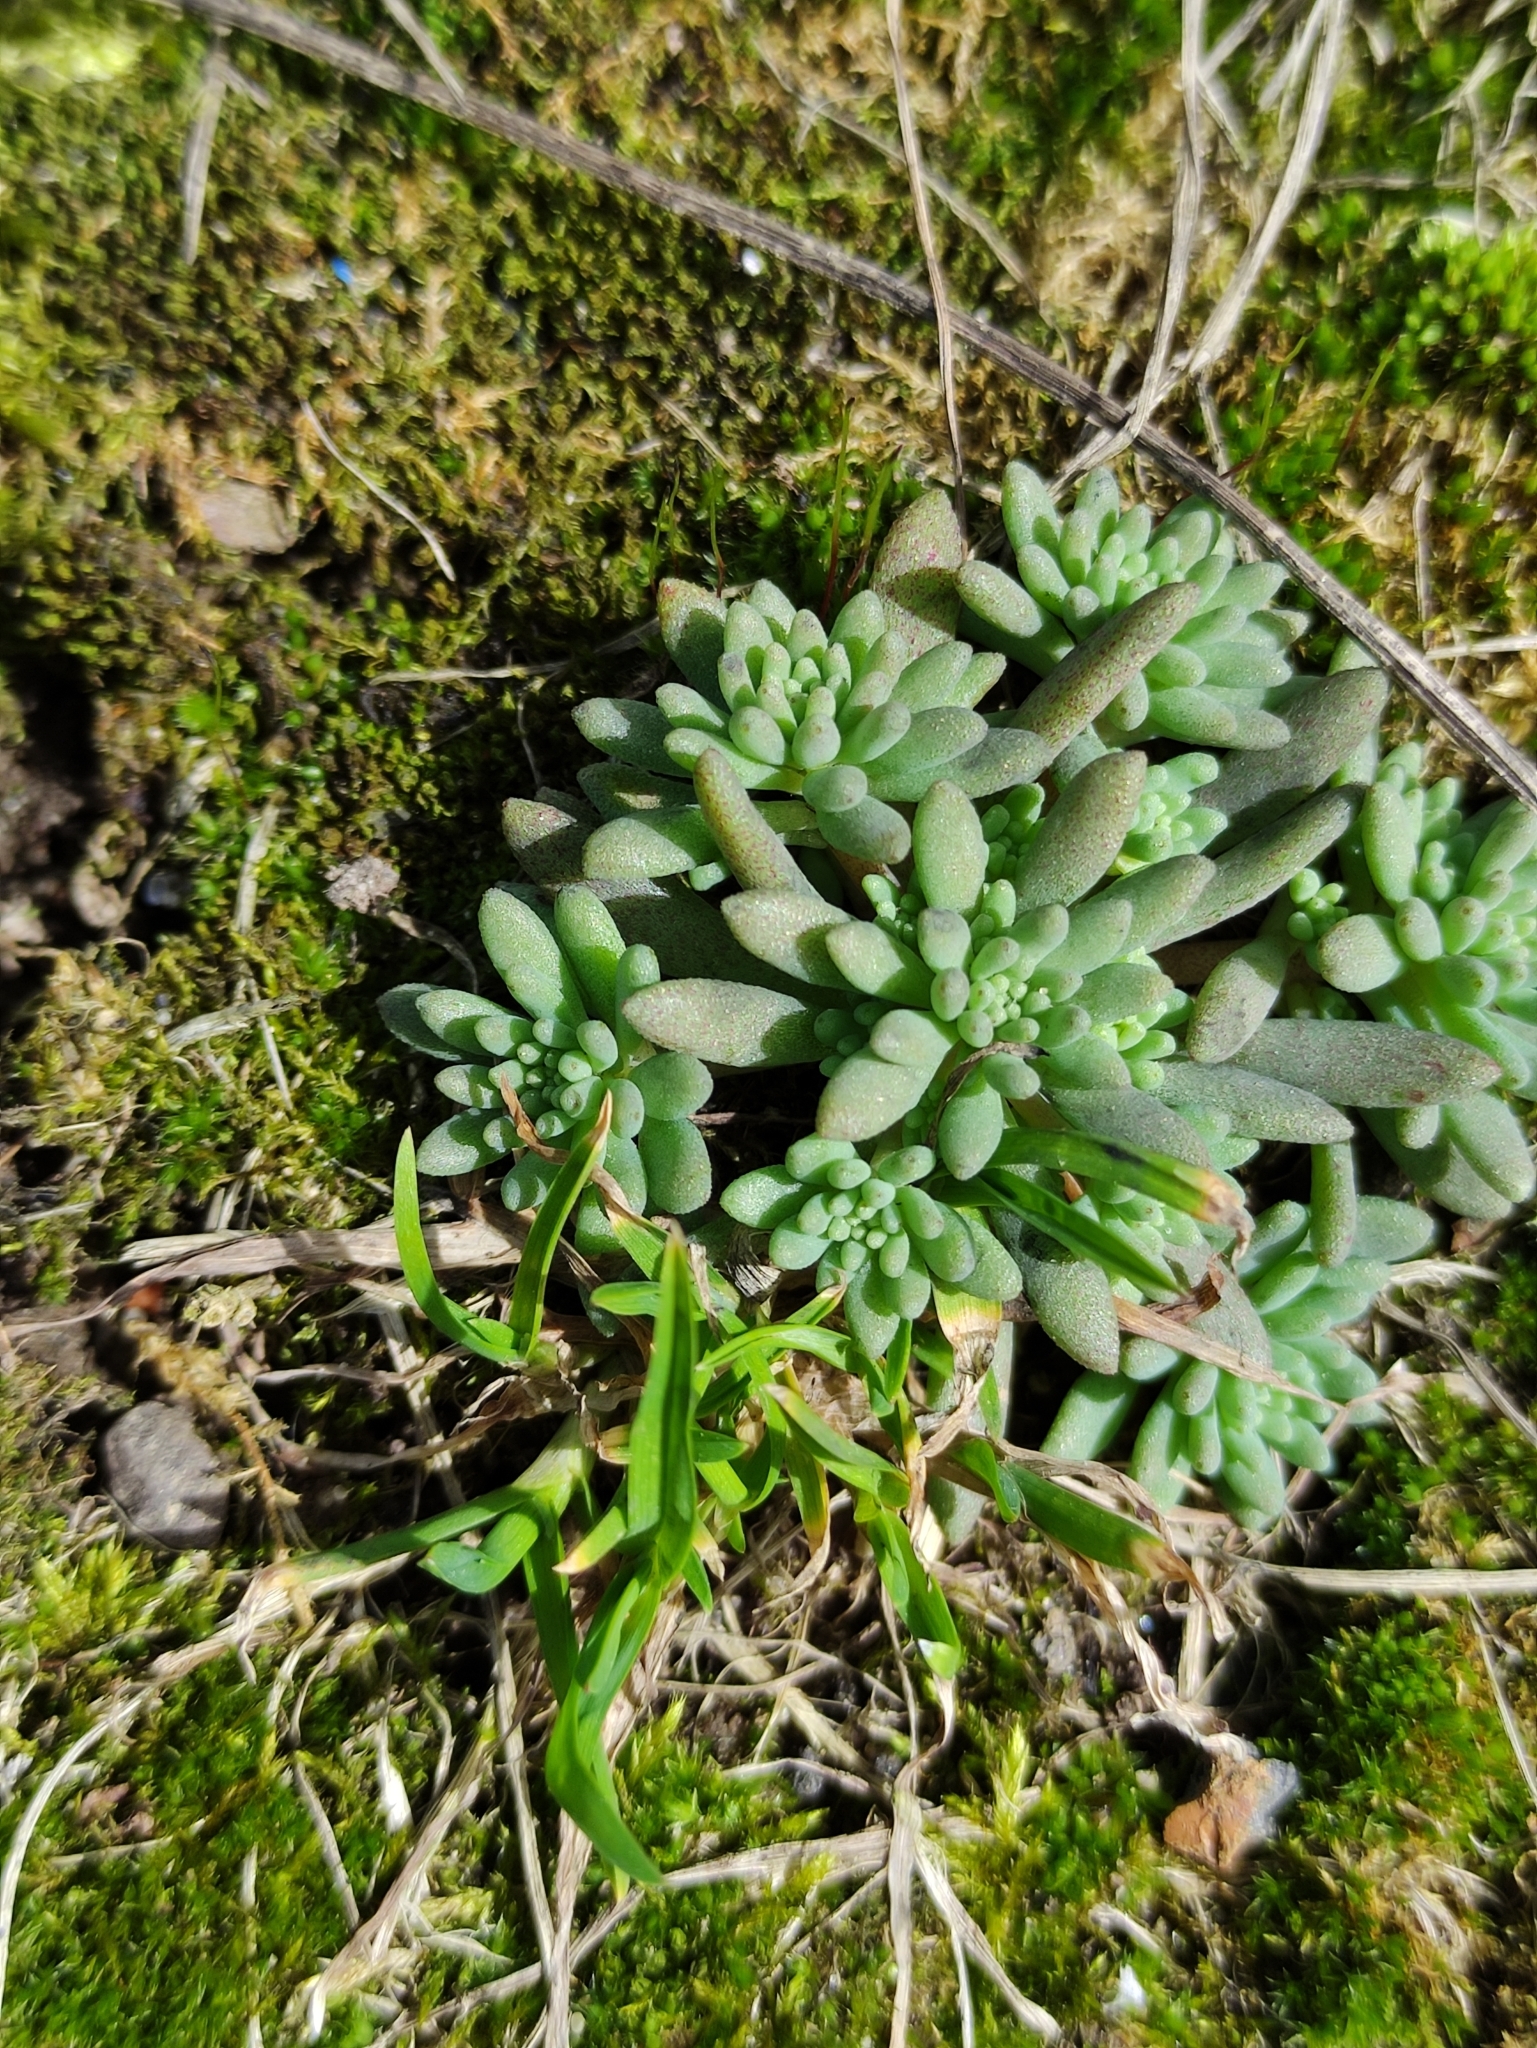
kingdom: Plantae
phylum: Tracheophyta
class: Magnoliopsida
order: Saxifragales
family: Crassulaceae
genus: Sedum
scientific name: Sedum hispanicum
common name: Spanish stonecrop
